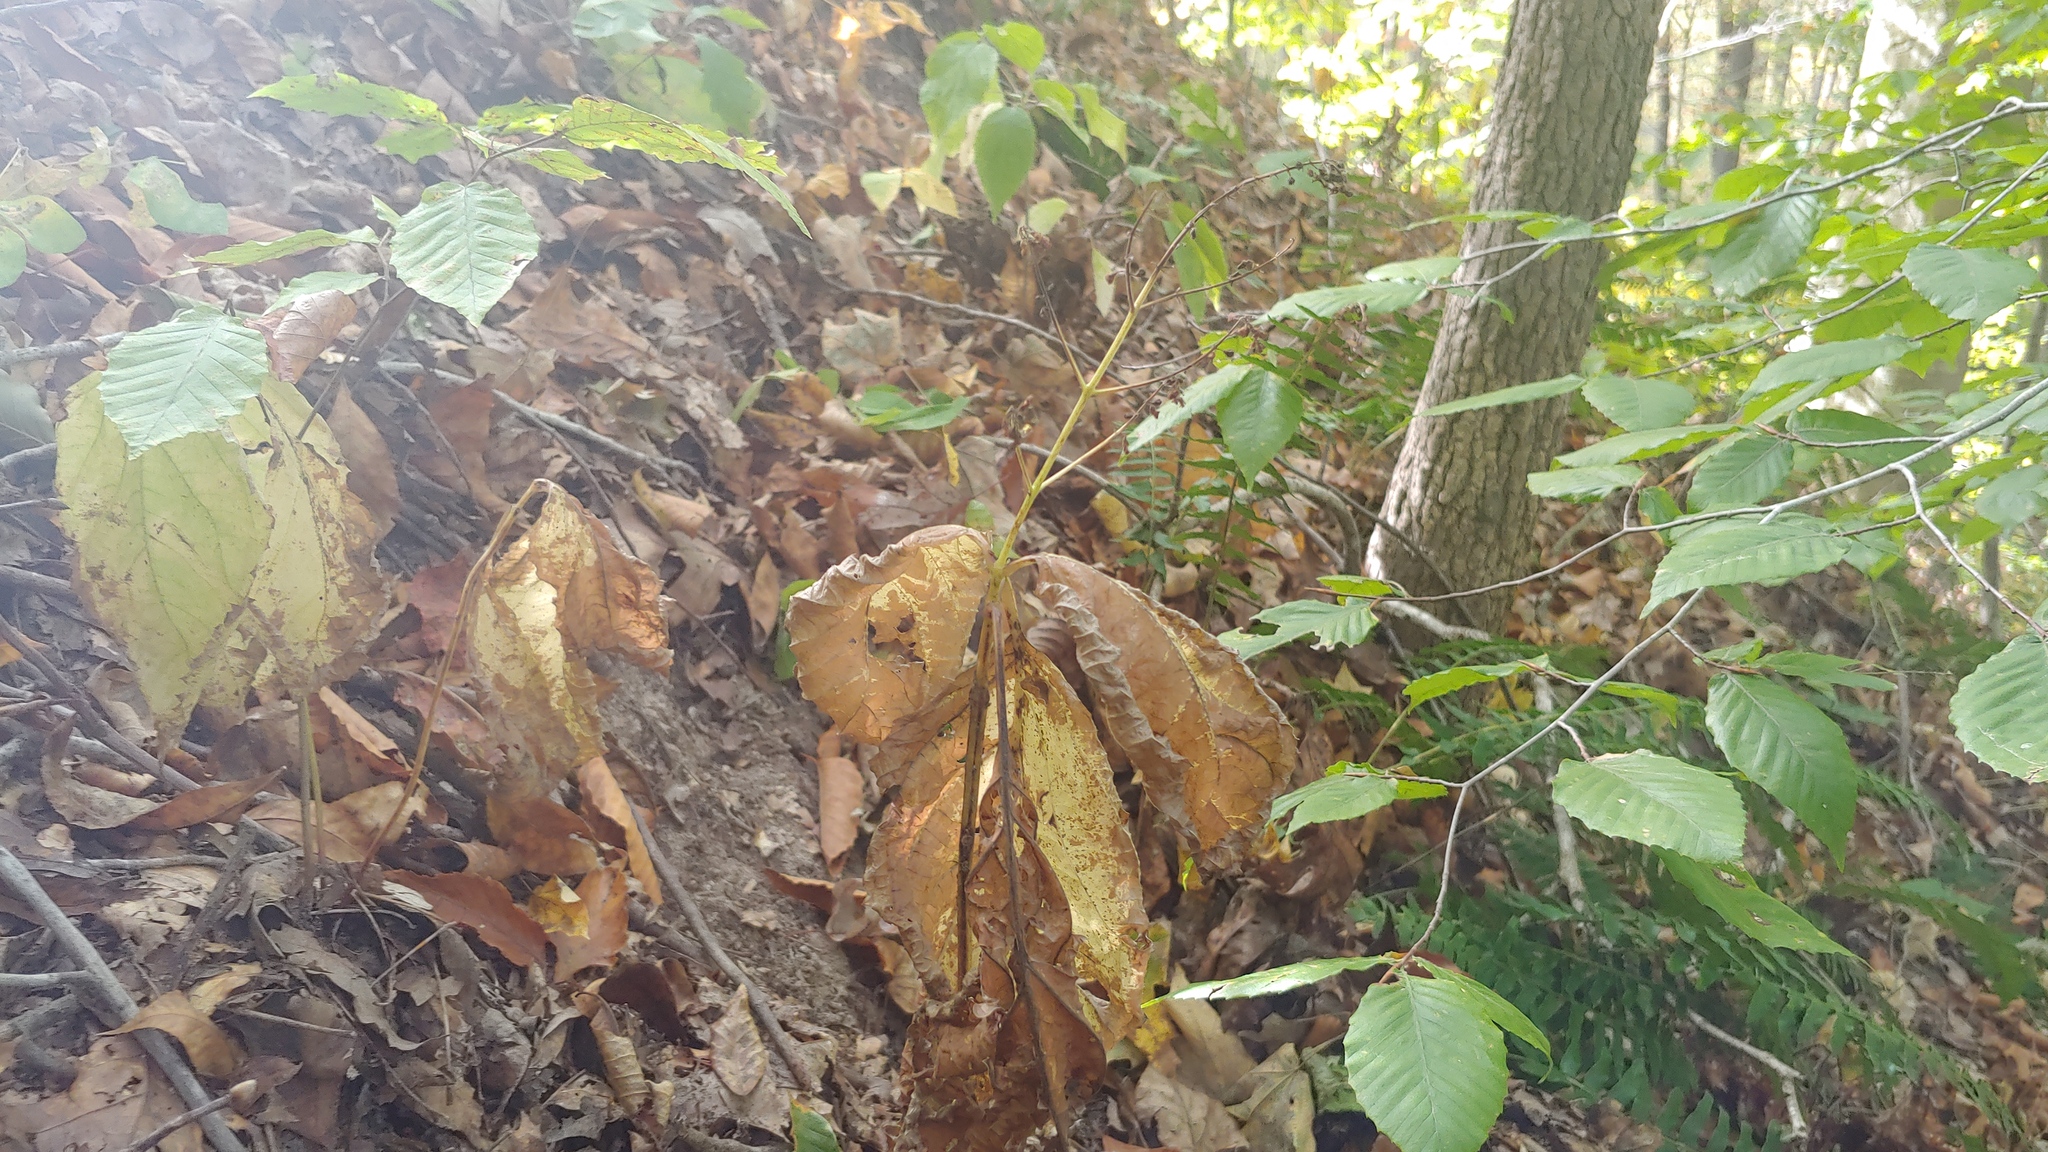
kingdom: Plantae
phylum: Tracheophyta
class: Magnoliopsida
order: Lamiales
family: Lamiaceae
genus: Collinsonia
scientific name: Collinsonia canadensis
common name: Northern horsebalm
